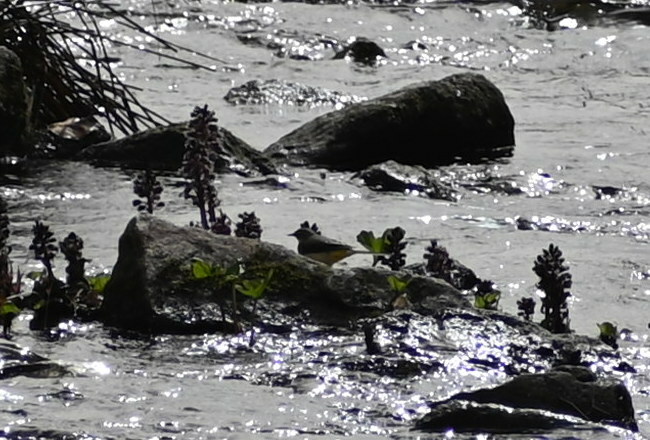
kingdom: Animalia
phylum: Chordata
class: Aves
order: Passeriformes
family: Motacillidae
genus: Motacilla
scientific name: Motacilla cinerea
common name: Grey wagtail
